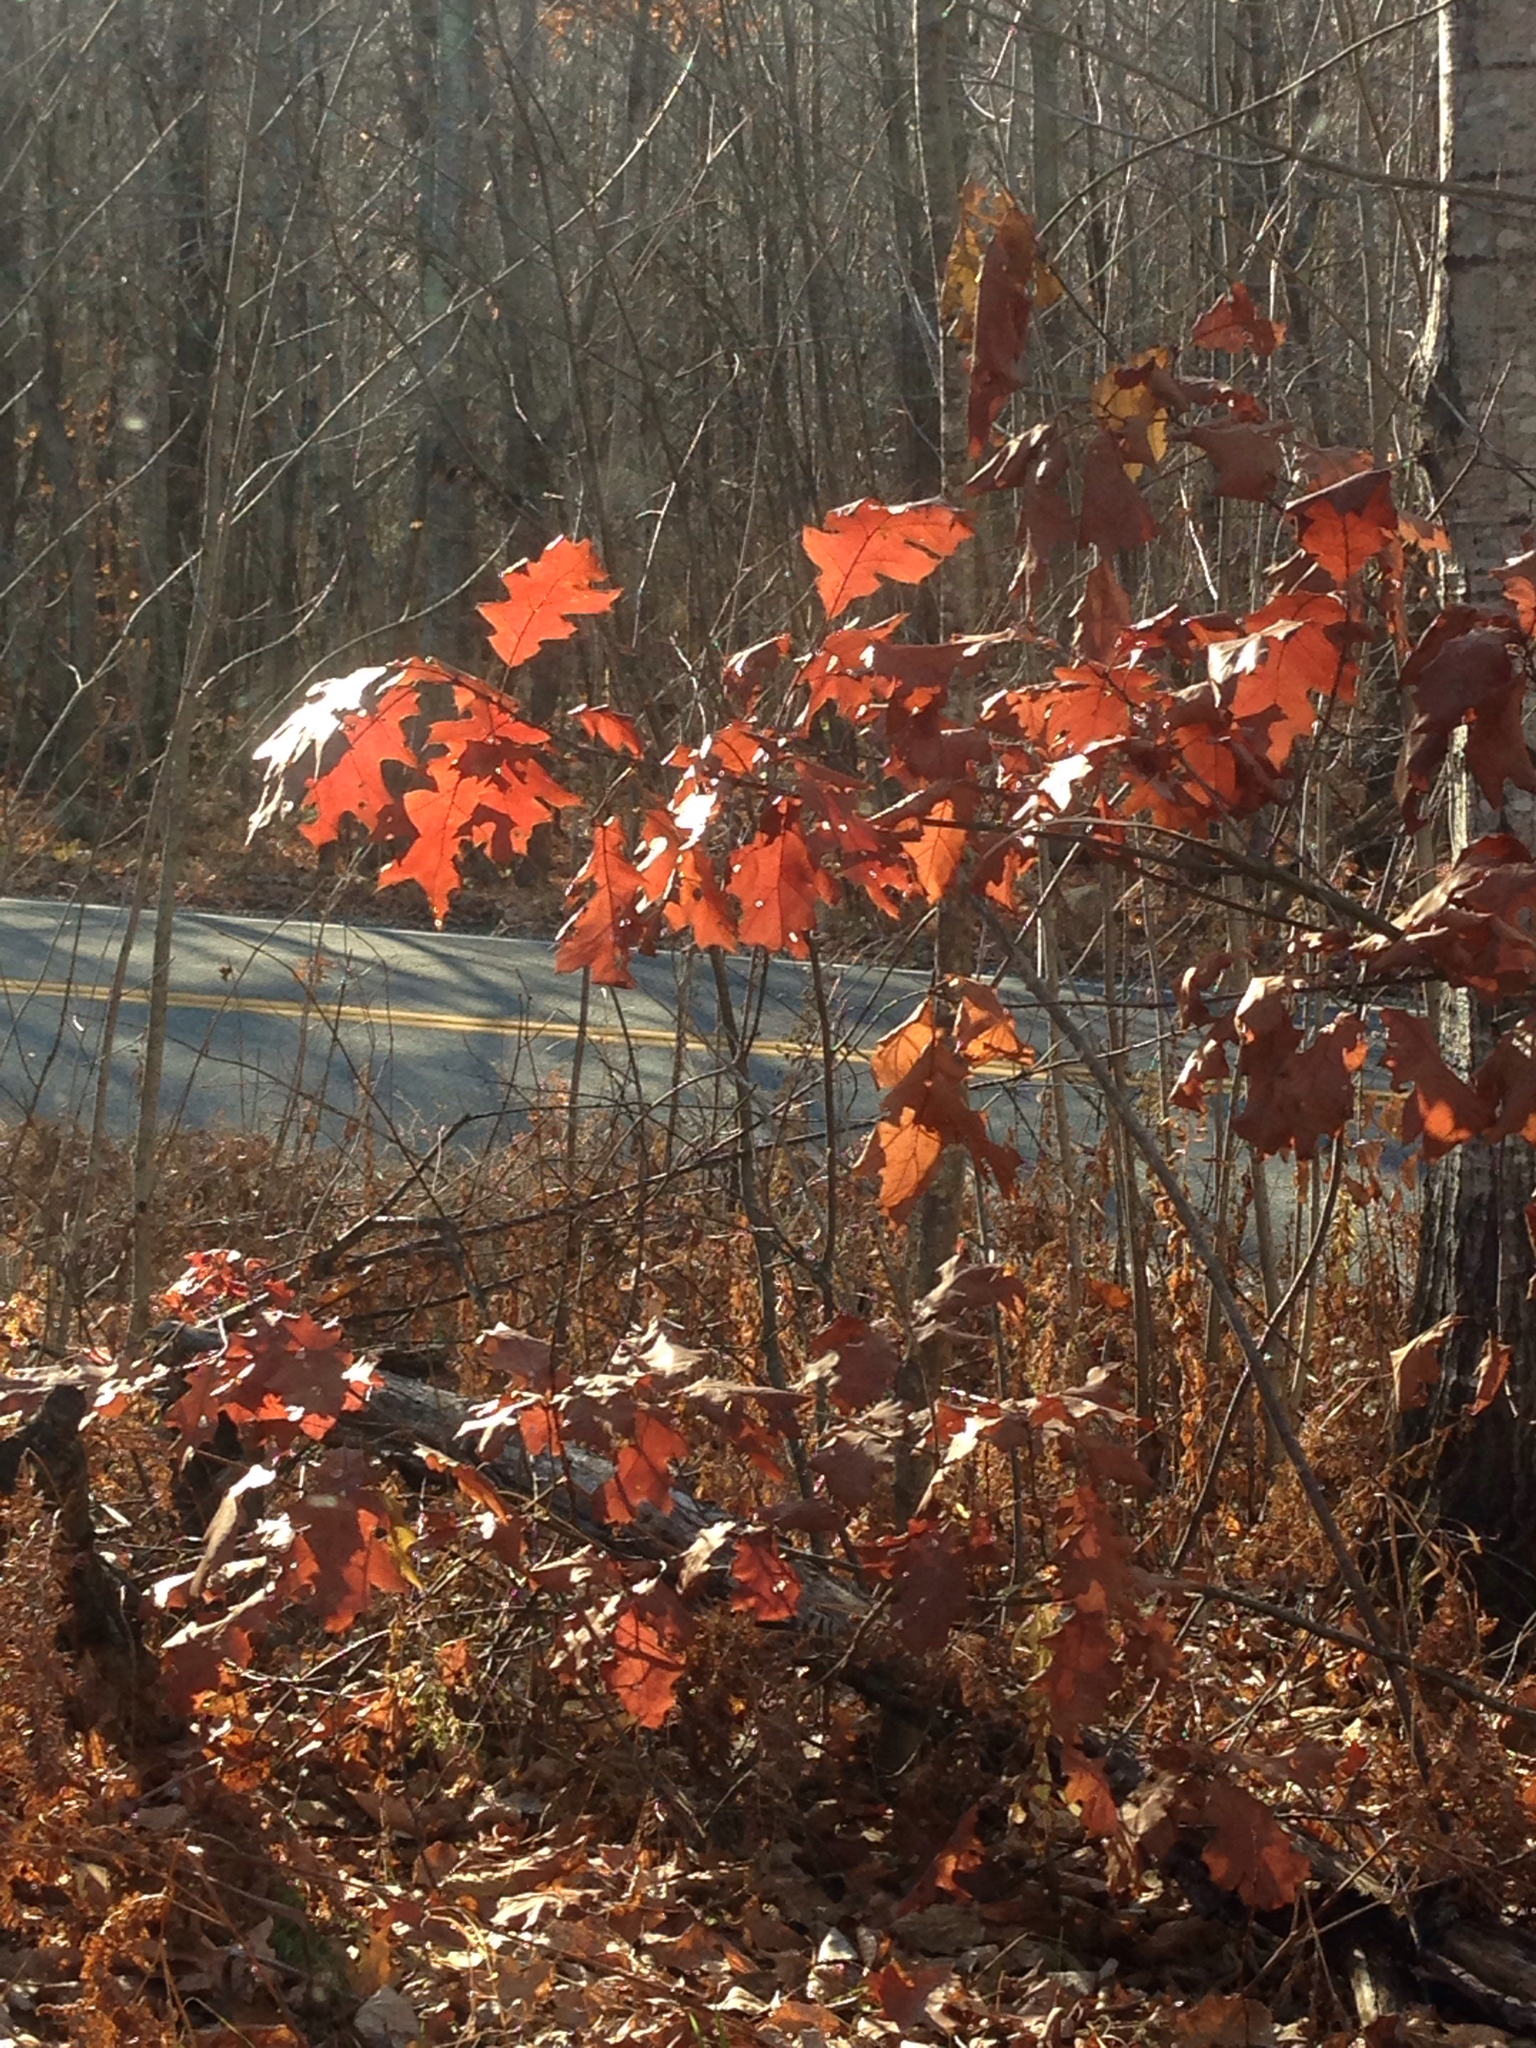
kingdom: Plantae
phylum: Tracheophyta
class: Magnoliopsida
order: Fagales
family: Fagaceae
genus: Quercus
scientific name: Quercus rubra
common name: Red oak
